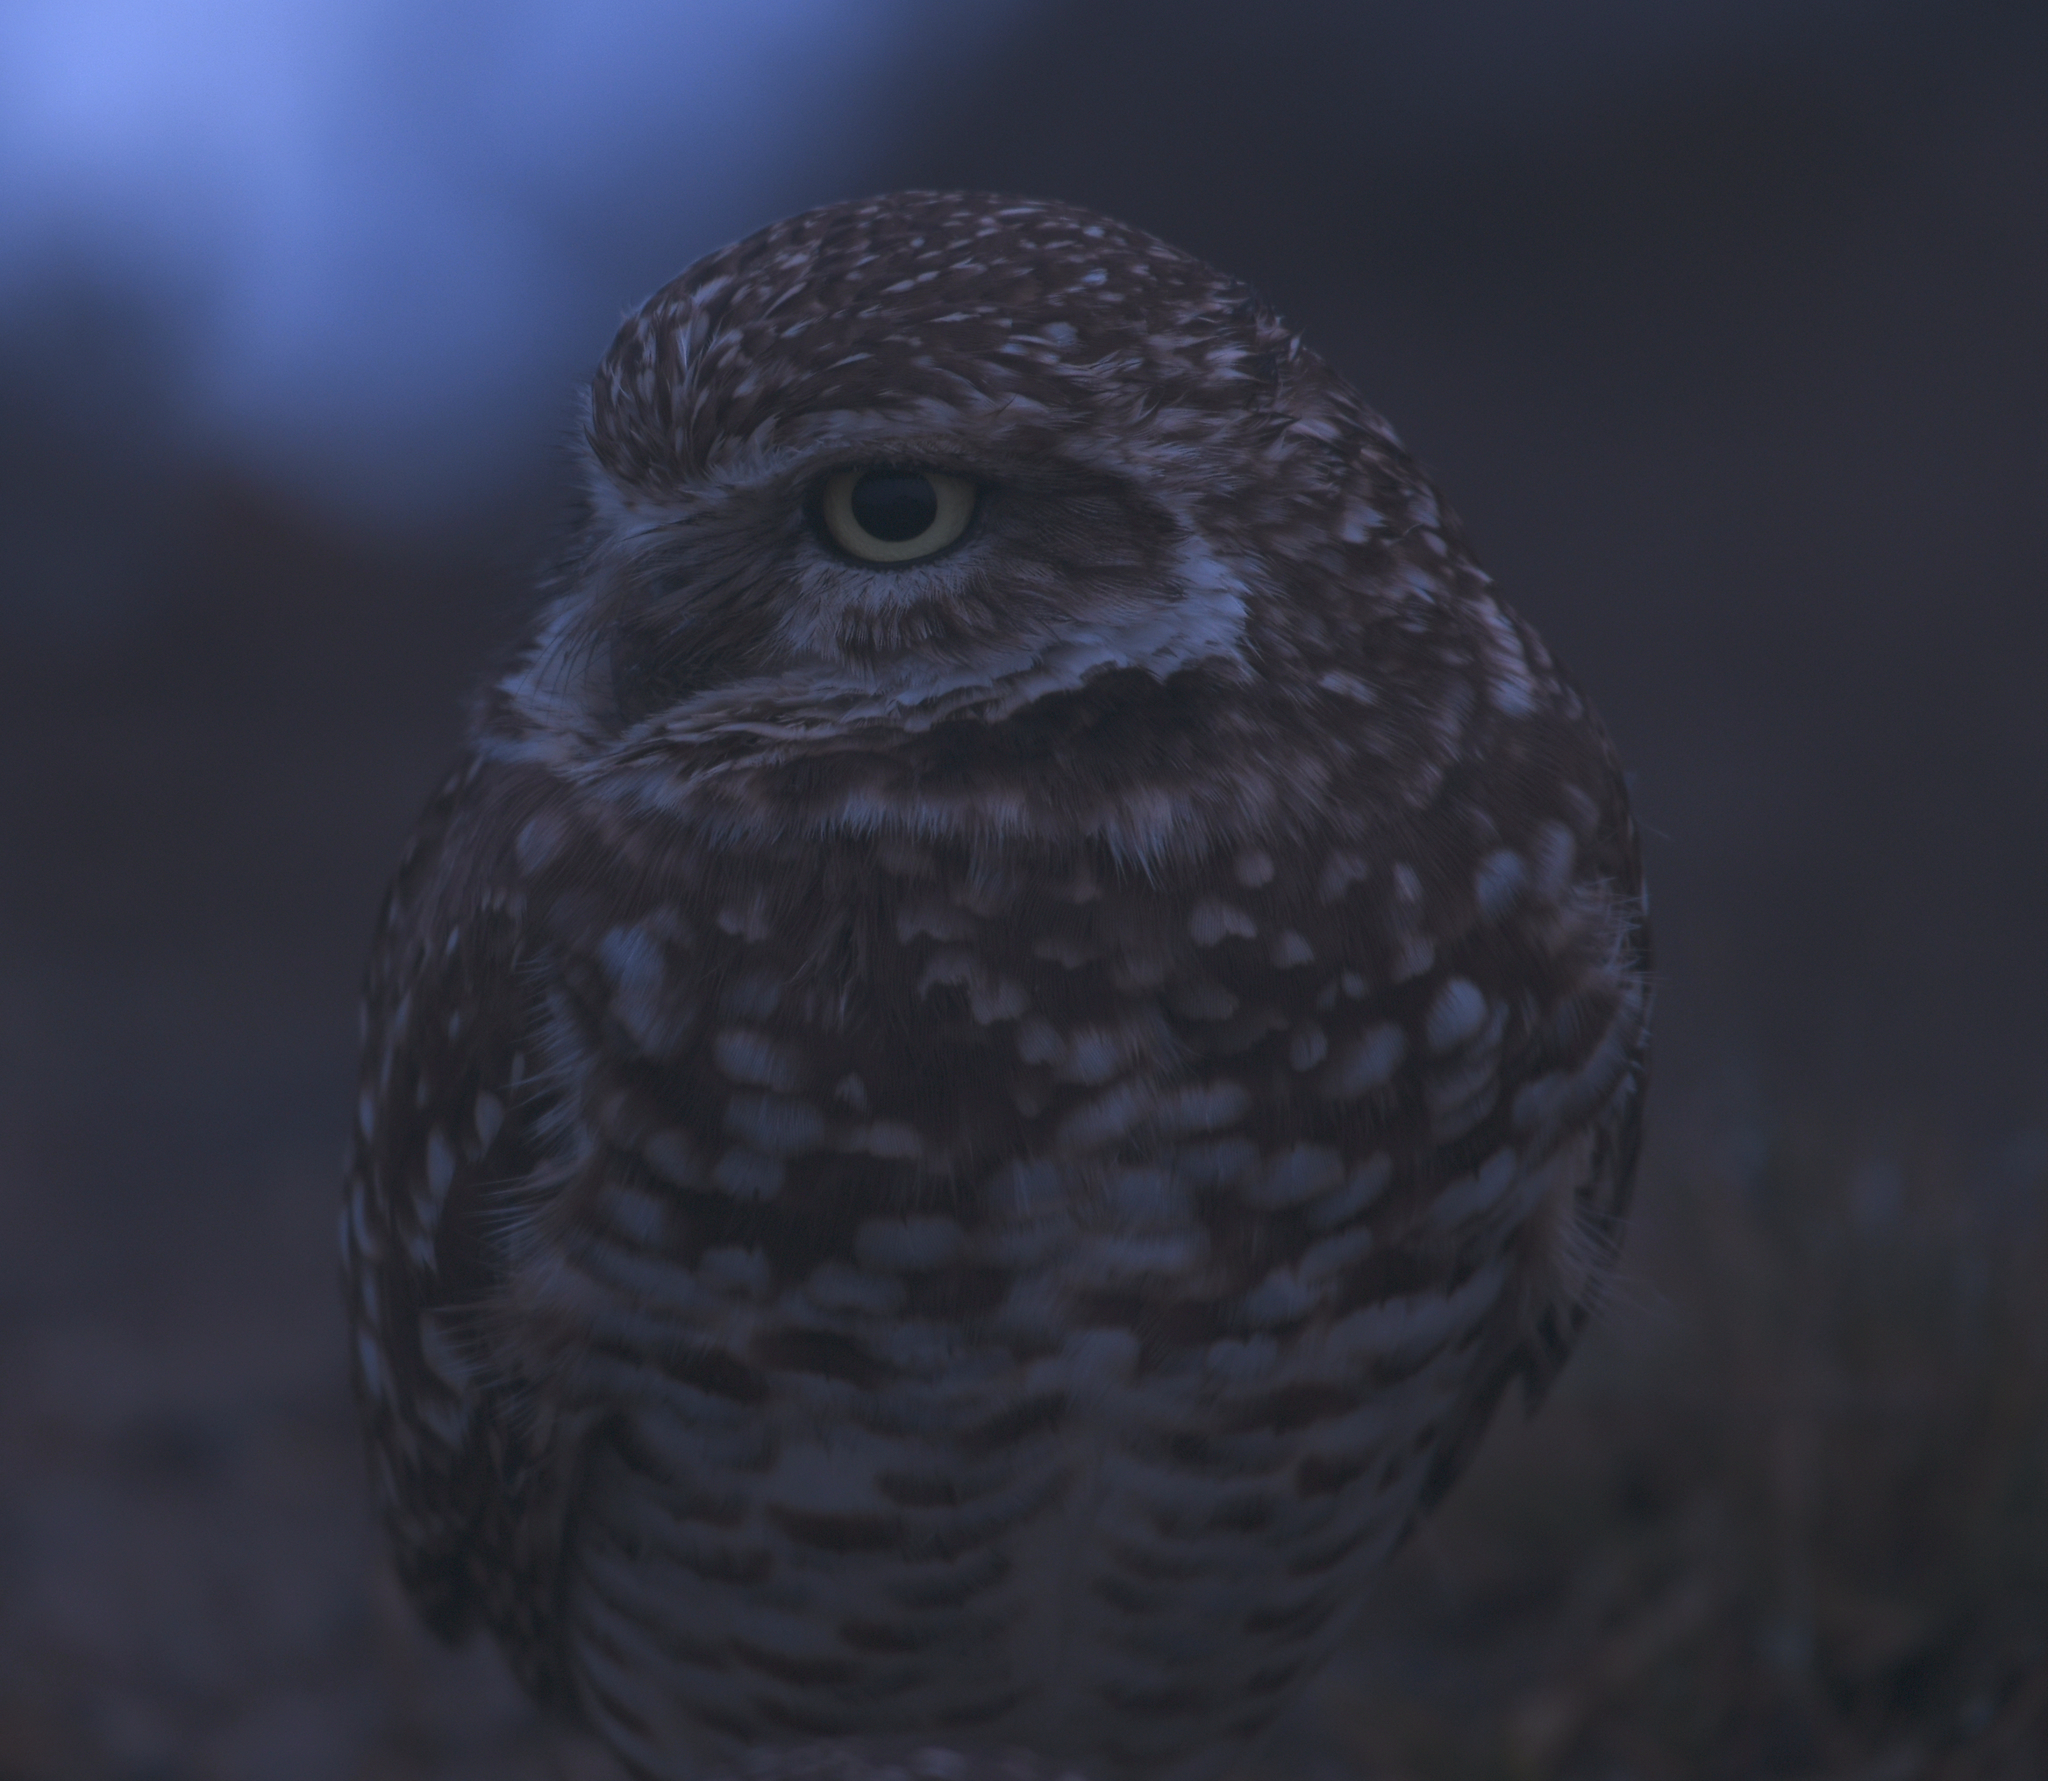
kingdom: Animalia
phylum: Chordata
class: Aves
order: Strigiformes
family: Strigidae
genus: Athene
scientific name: Athene cunicularia
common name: Burrowing owl
